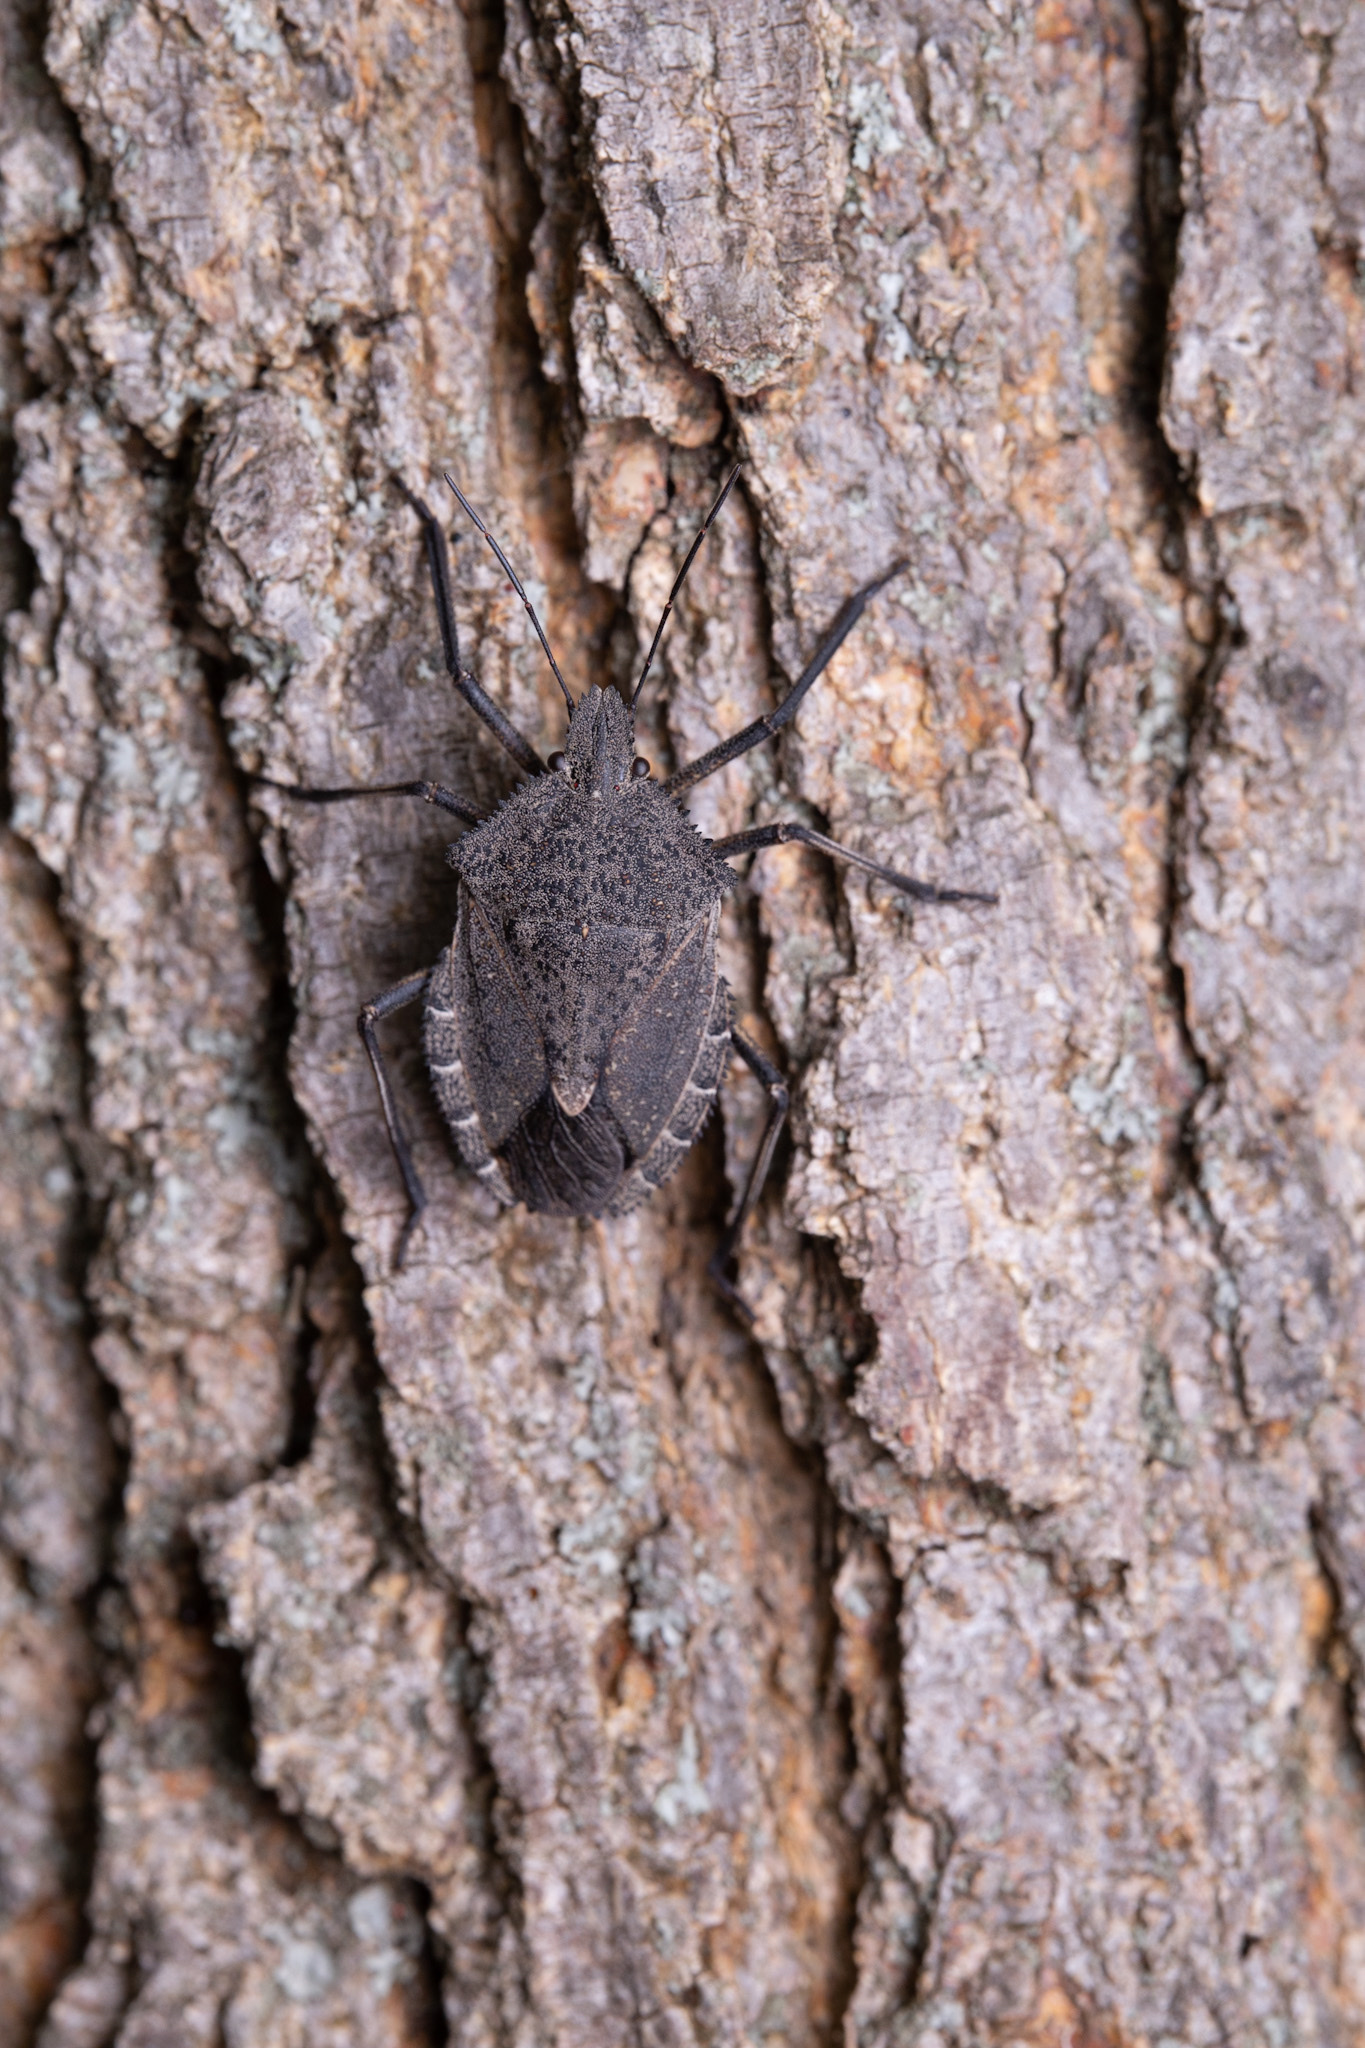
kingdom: Animalia
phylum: Arthropoda
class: Insecta
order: Hemiptera
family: Pentatomidae
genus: Mustha
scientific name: Mustha spinosula
